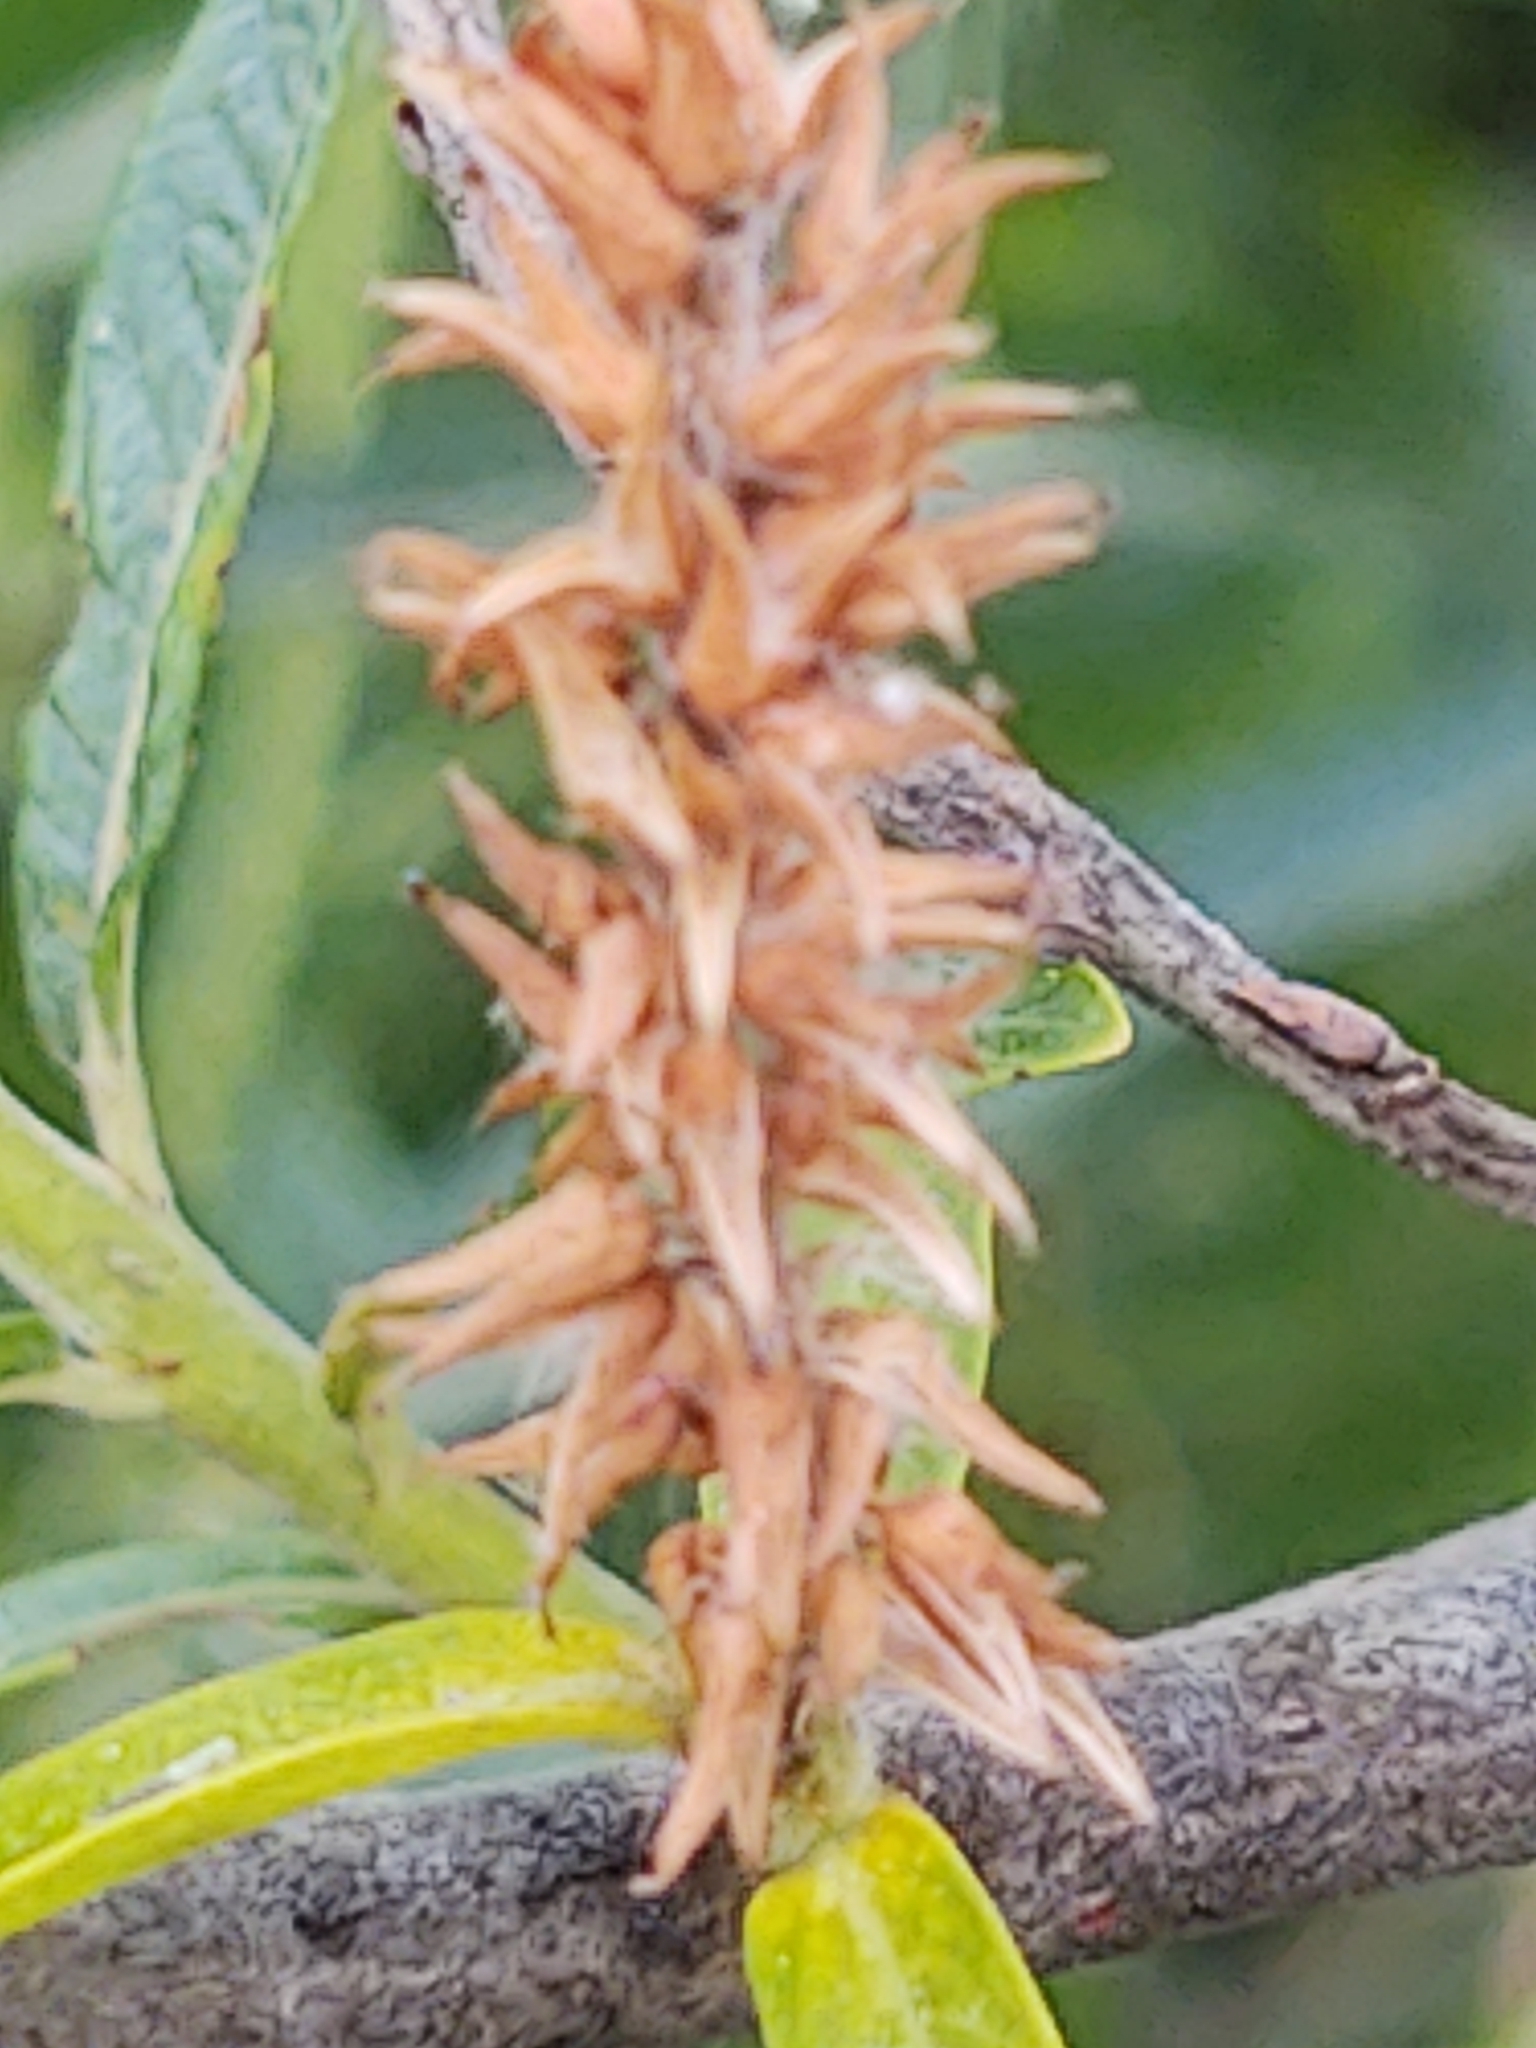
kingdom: Animalia
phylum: Arthropoda
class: Insecta
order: Diptera
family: Cecidomyiidae
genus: Rabdophaga
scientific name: Rabdophaga strobiloides
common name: Willow pinecone gall midge
